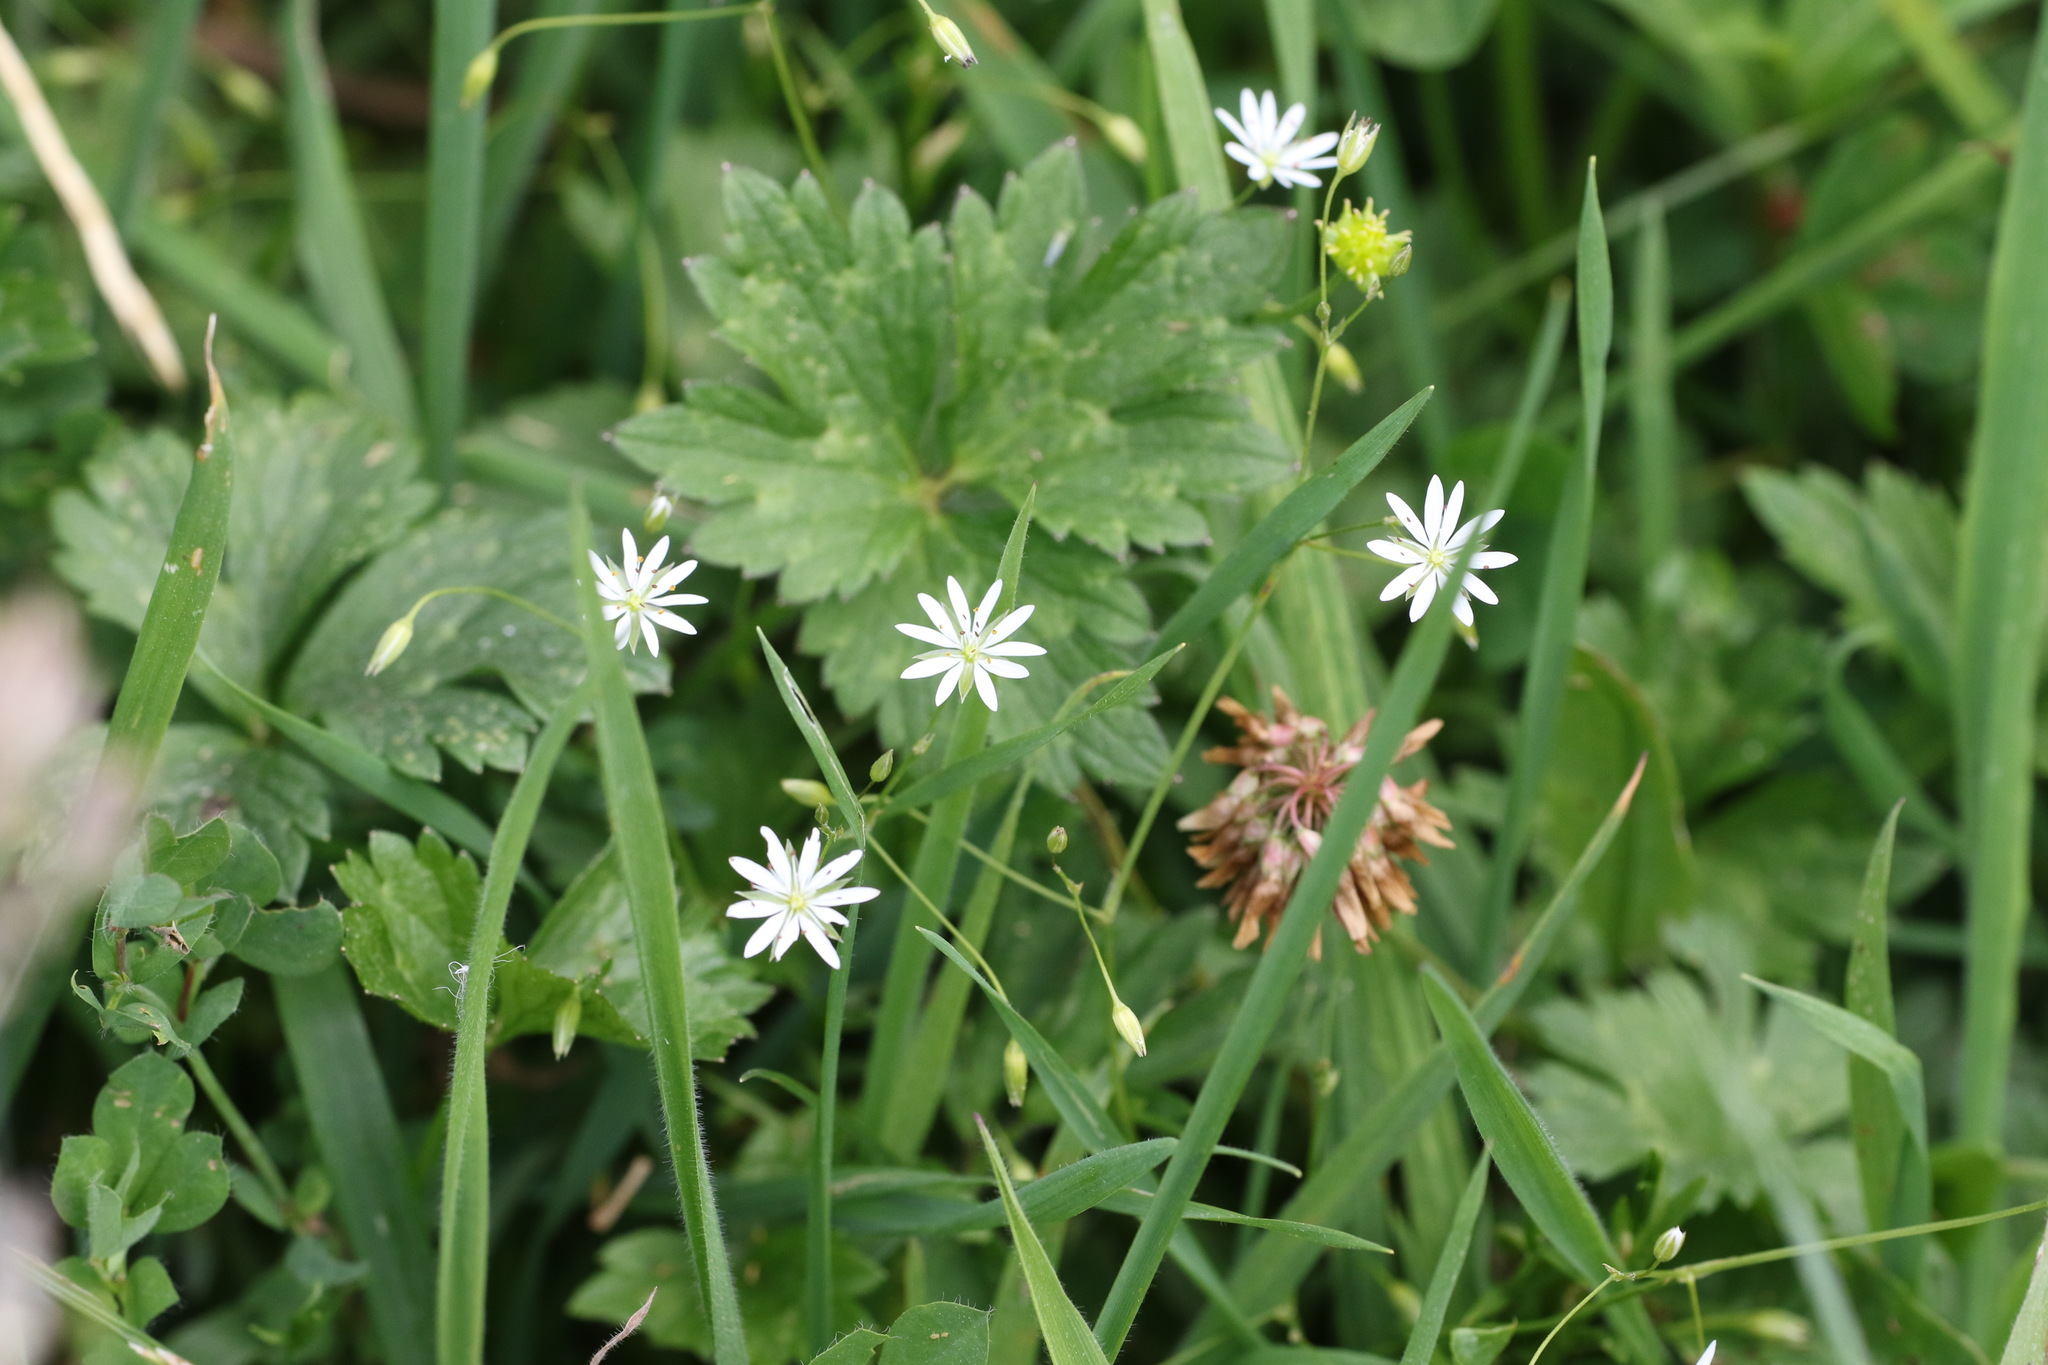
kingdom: Plantae
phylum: Tracheophyta
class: Magnoliopsida
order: Caryophyllales
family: Caryophyllaceae
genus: Stellaria
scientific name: Stellaria graminea
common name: Grass-like starwort
